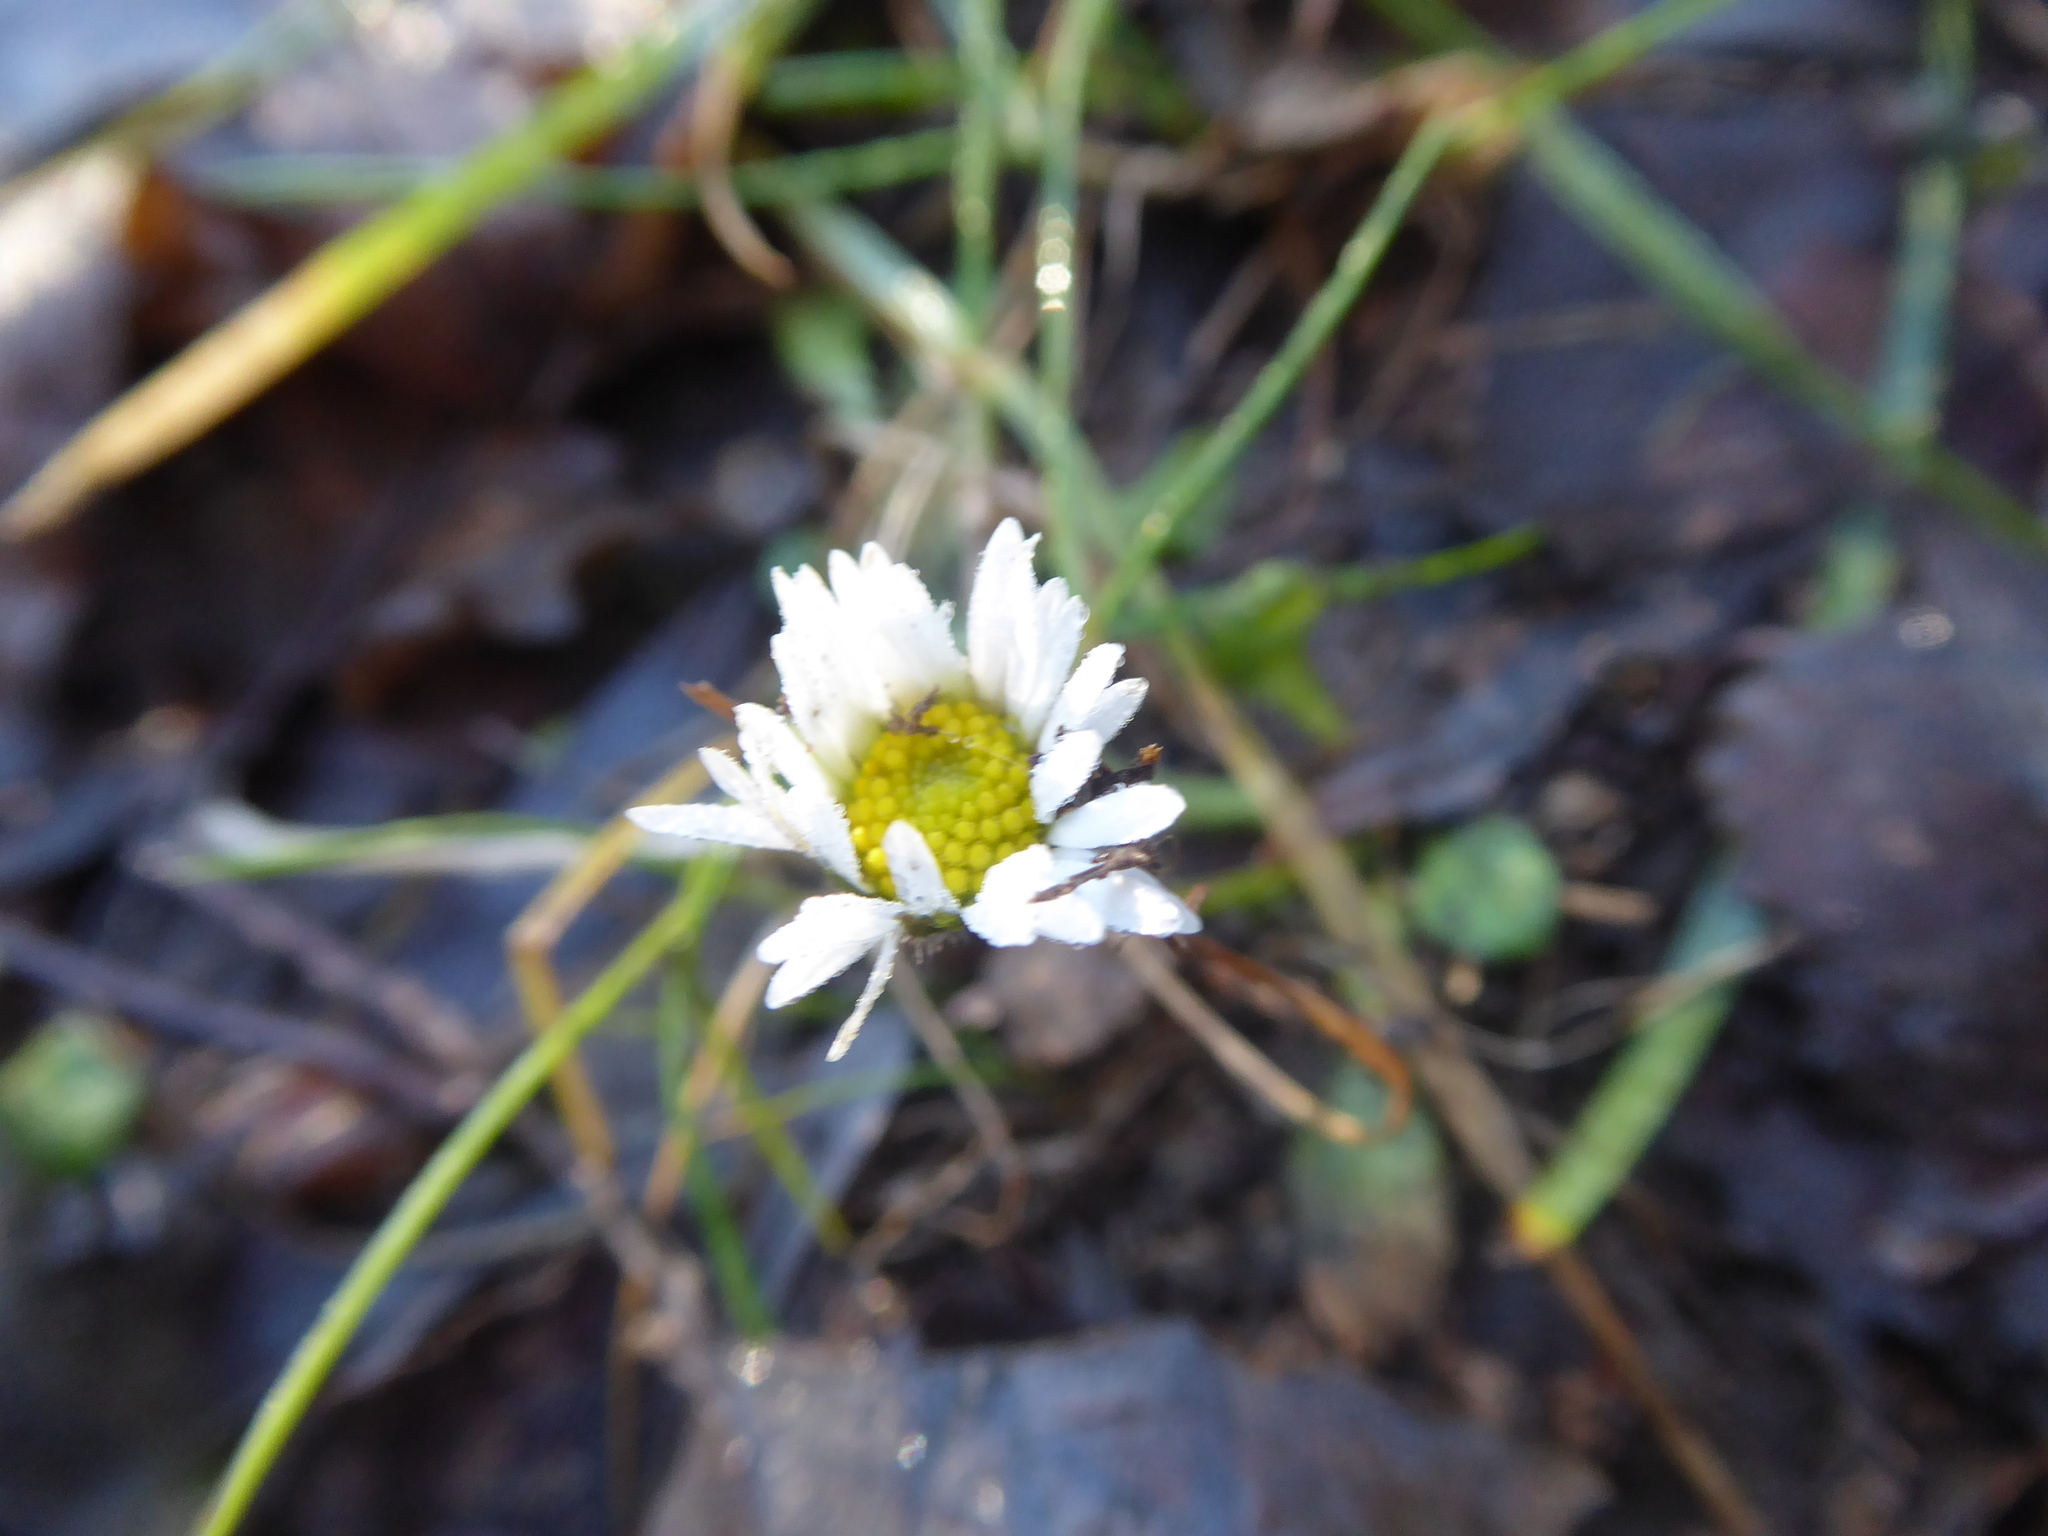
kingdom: Plantae
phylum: Tracheophyta
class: Magnoliopsida
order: Asterales
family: Asteraceae
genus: Bellis
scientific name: Bellis perennis
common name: Lawndaisy
